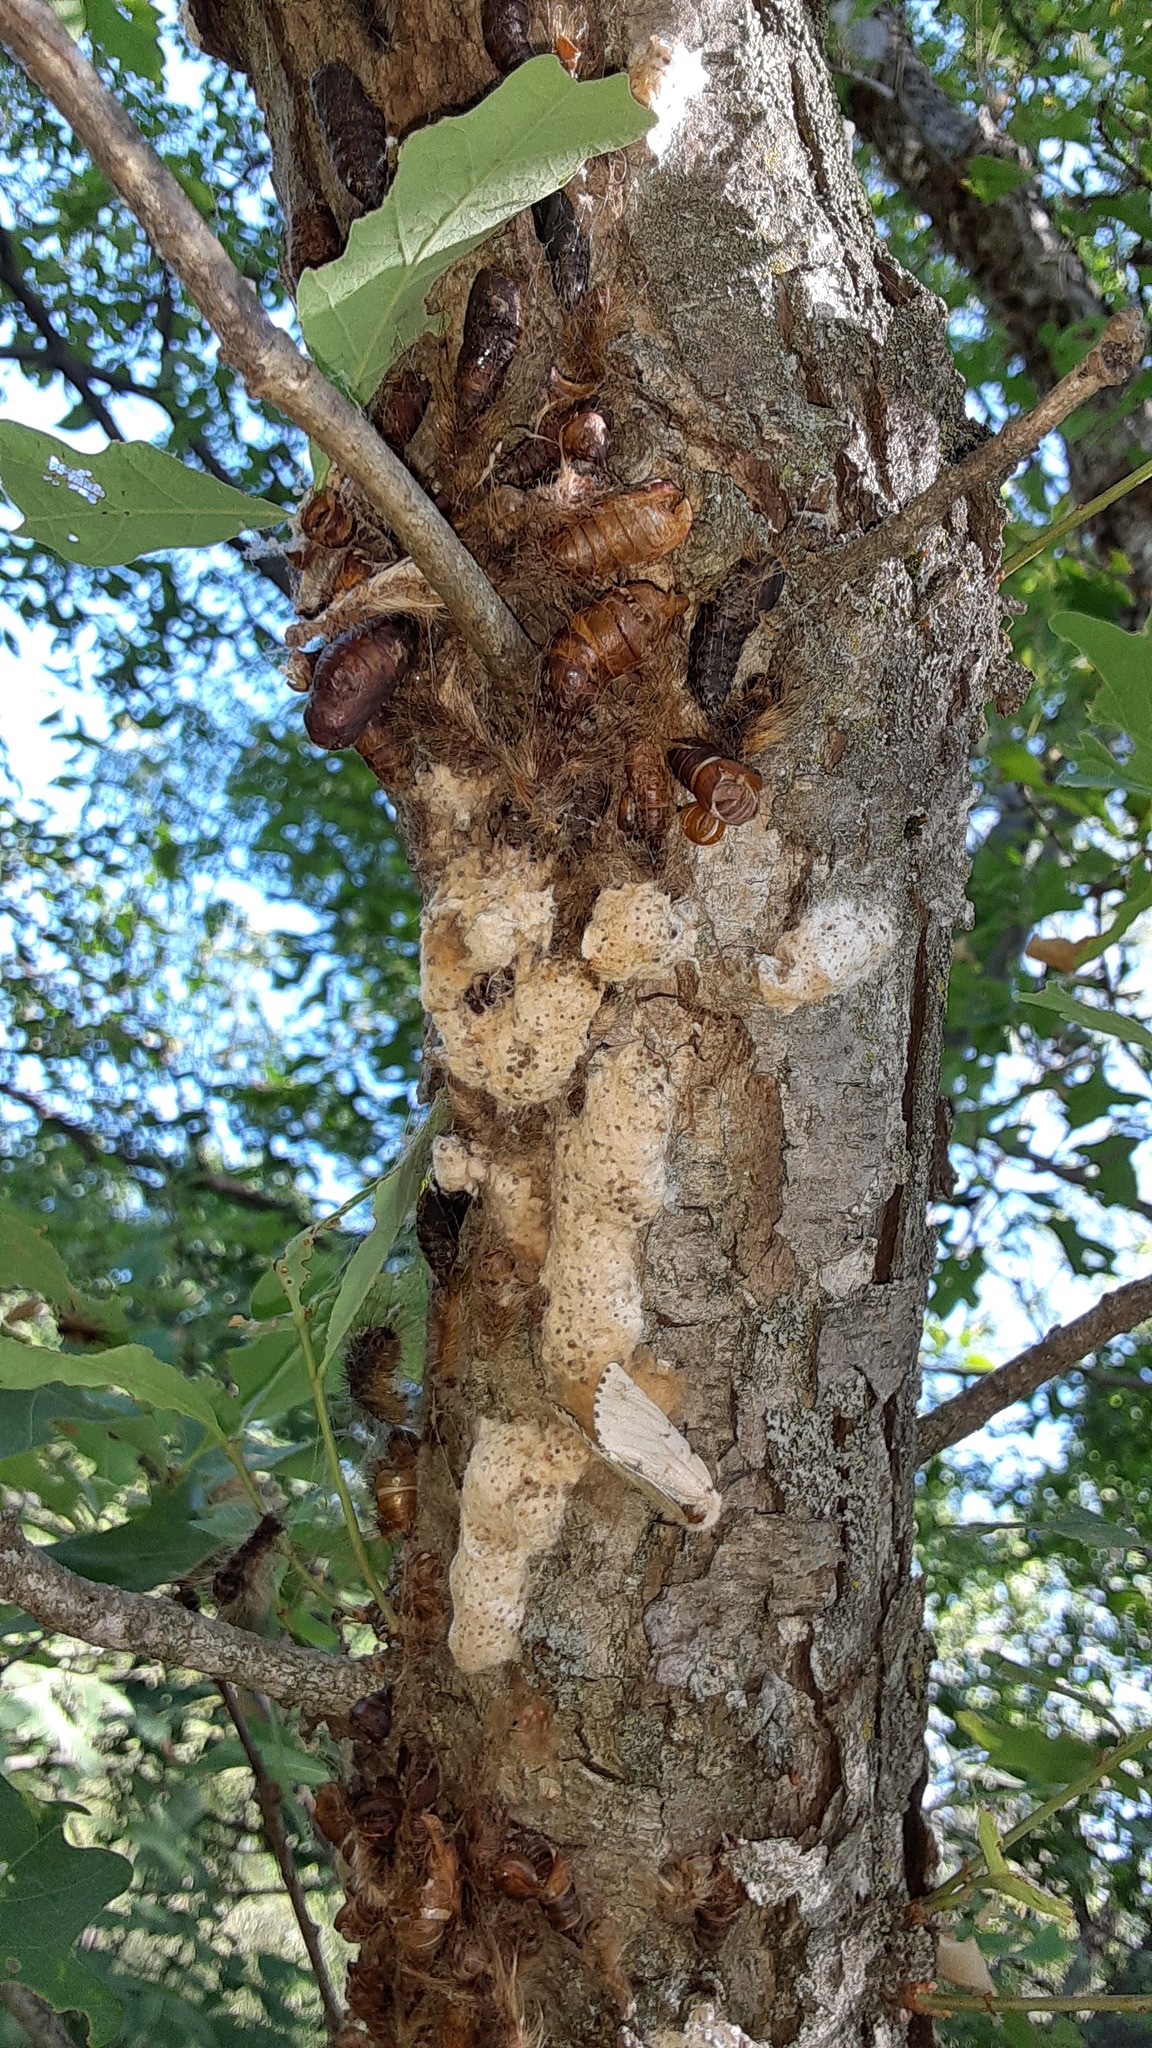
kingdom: Animalia
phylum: Arthropoda
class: Insecta
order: Lepidoptera
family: Erebidae
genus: Lymantria
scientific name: Lymantria dispar
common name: Gypsy moth
